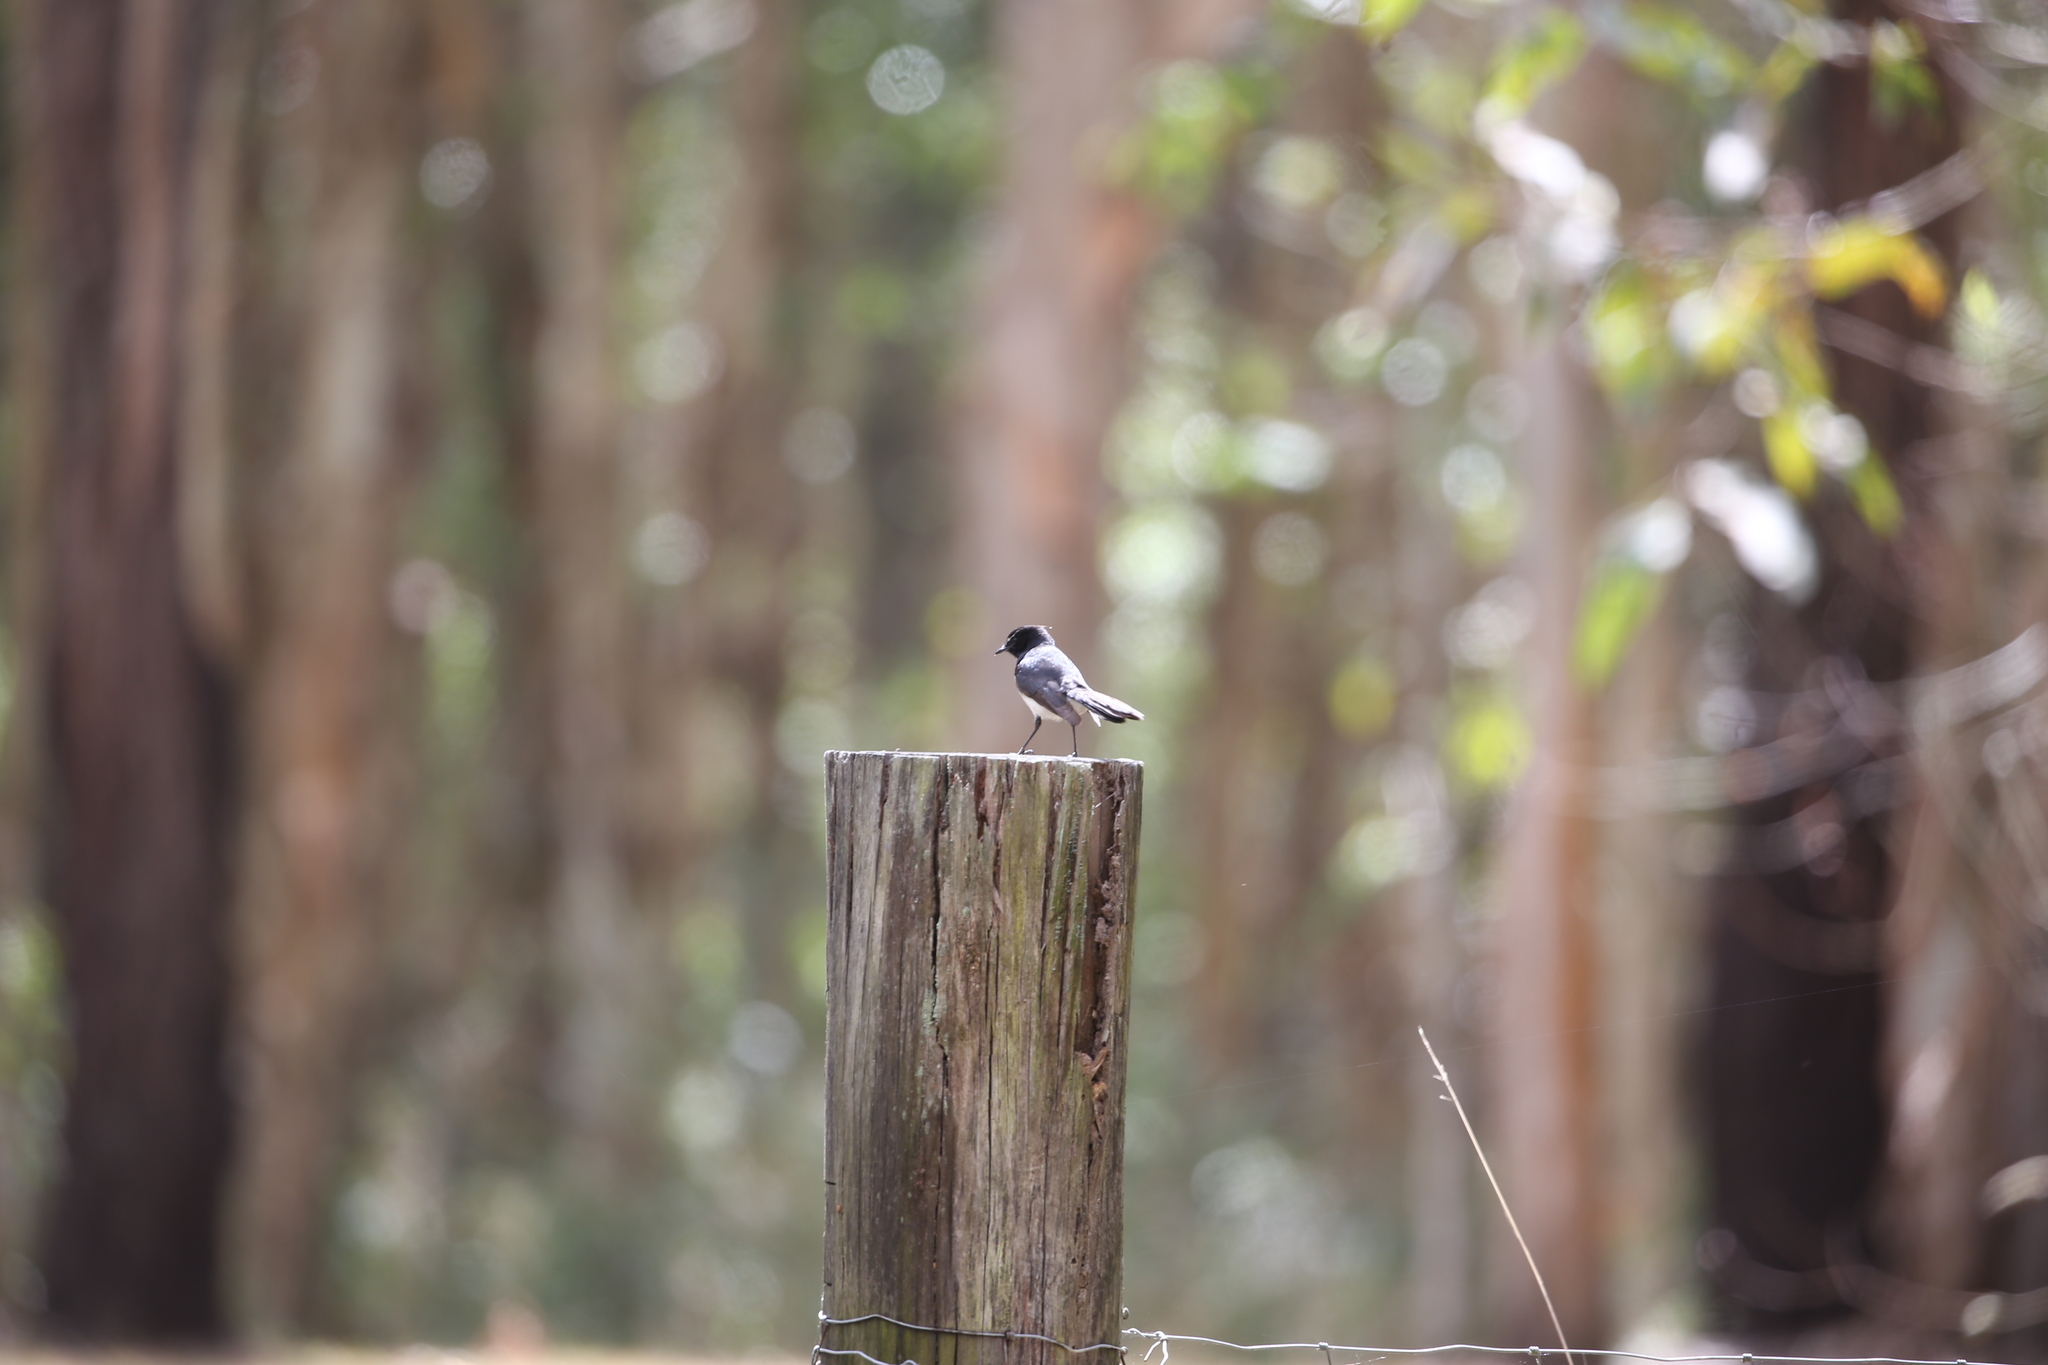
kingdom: Animalia
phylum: Chordata
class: Aves
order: Passeriformes
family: Rhipiduridae
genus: Rhipidura
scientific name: Rhipidura leucophrys
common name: Willie wagtail
